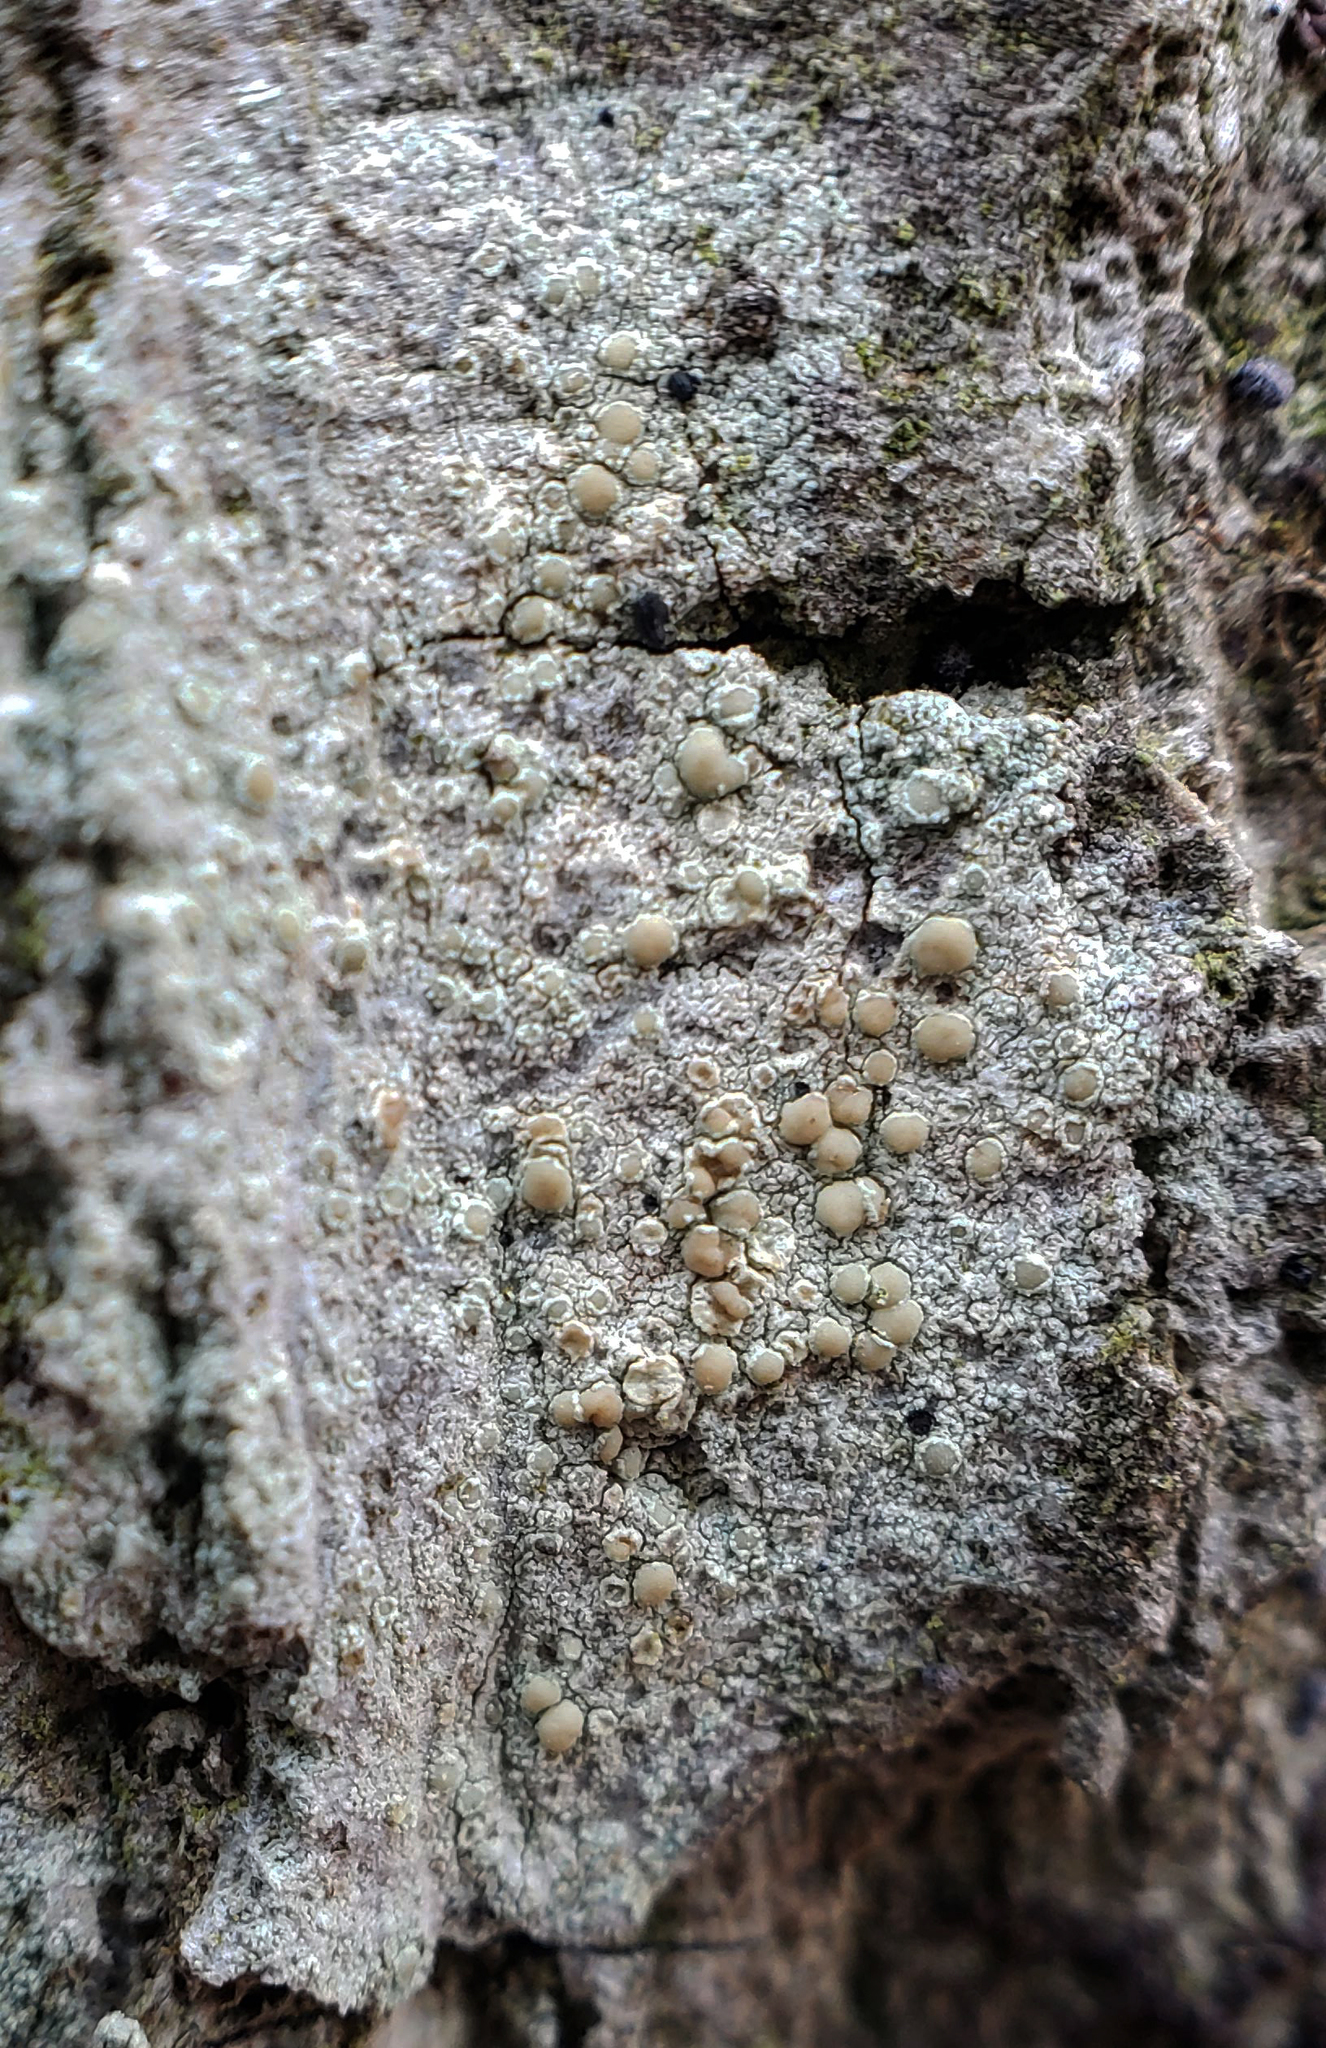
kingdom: Fungi
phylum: Ascomycota
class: Lecanoromycetes
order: Lecanorales
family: Lecanoraceae
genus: Lecanora
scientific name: Lecanora strobilina
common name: Mealy rim-lichen
